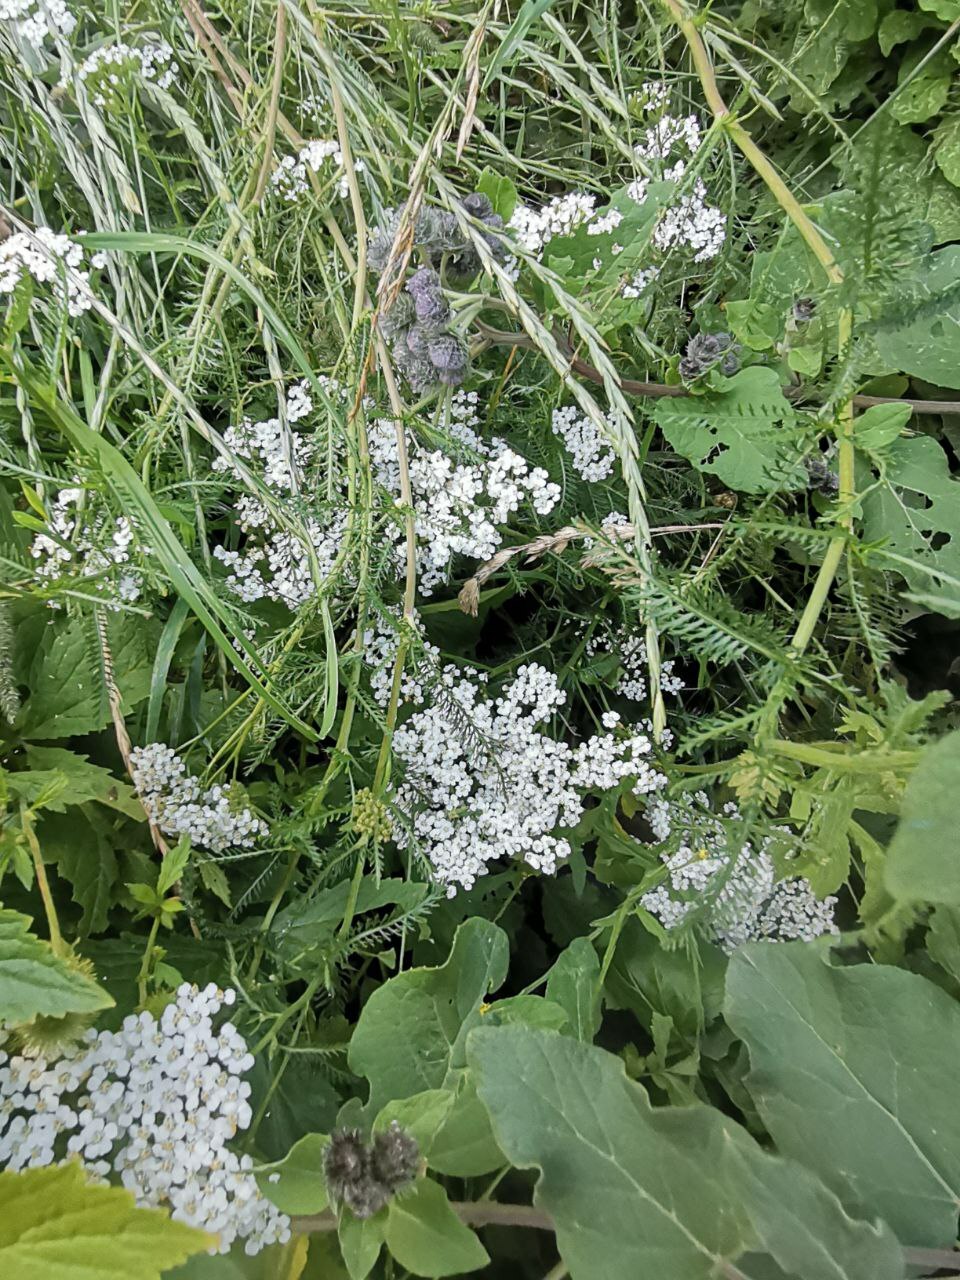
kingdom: Plantae
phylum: Tracheophyta
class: Magnoliopsida
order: Asterales
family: Asteraceae
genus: Achillea
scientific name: Achillea millefolium
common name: Yarrow
